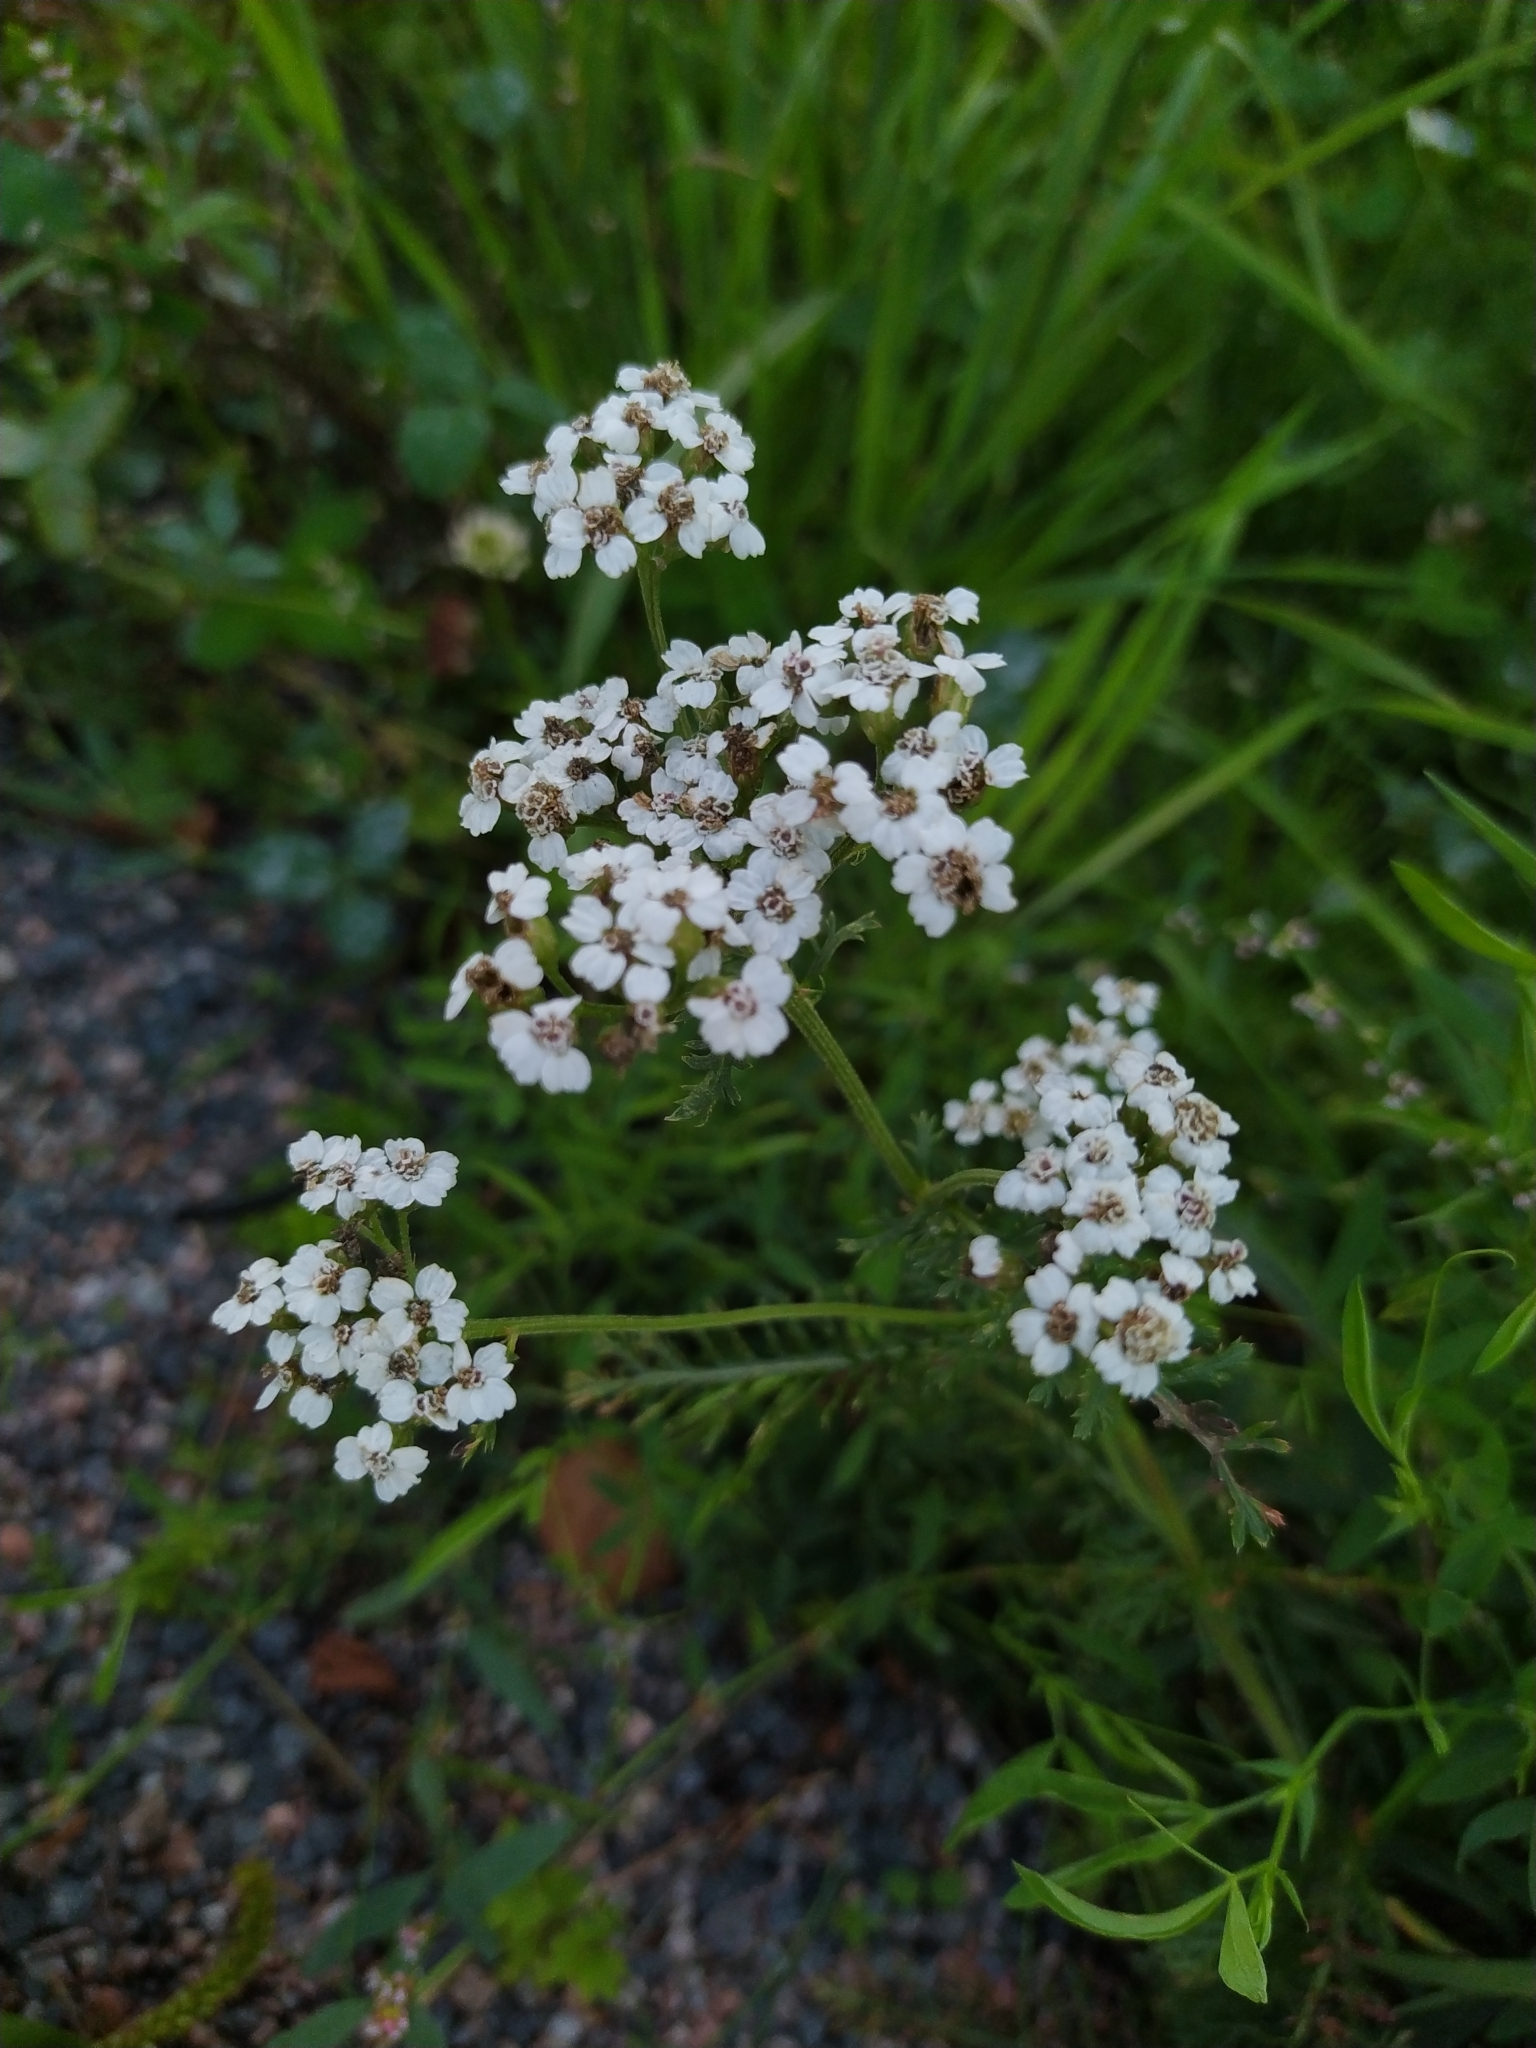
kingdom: Plantae
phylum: Tracheophyta
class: Magnoliopsida
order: Asterales
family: Asteraceae
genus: Achillea
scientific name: Achillea millefolium
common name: Yarrow
